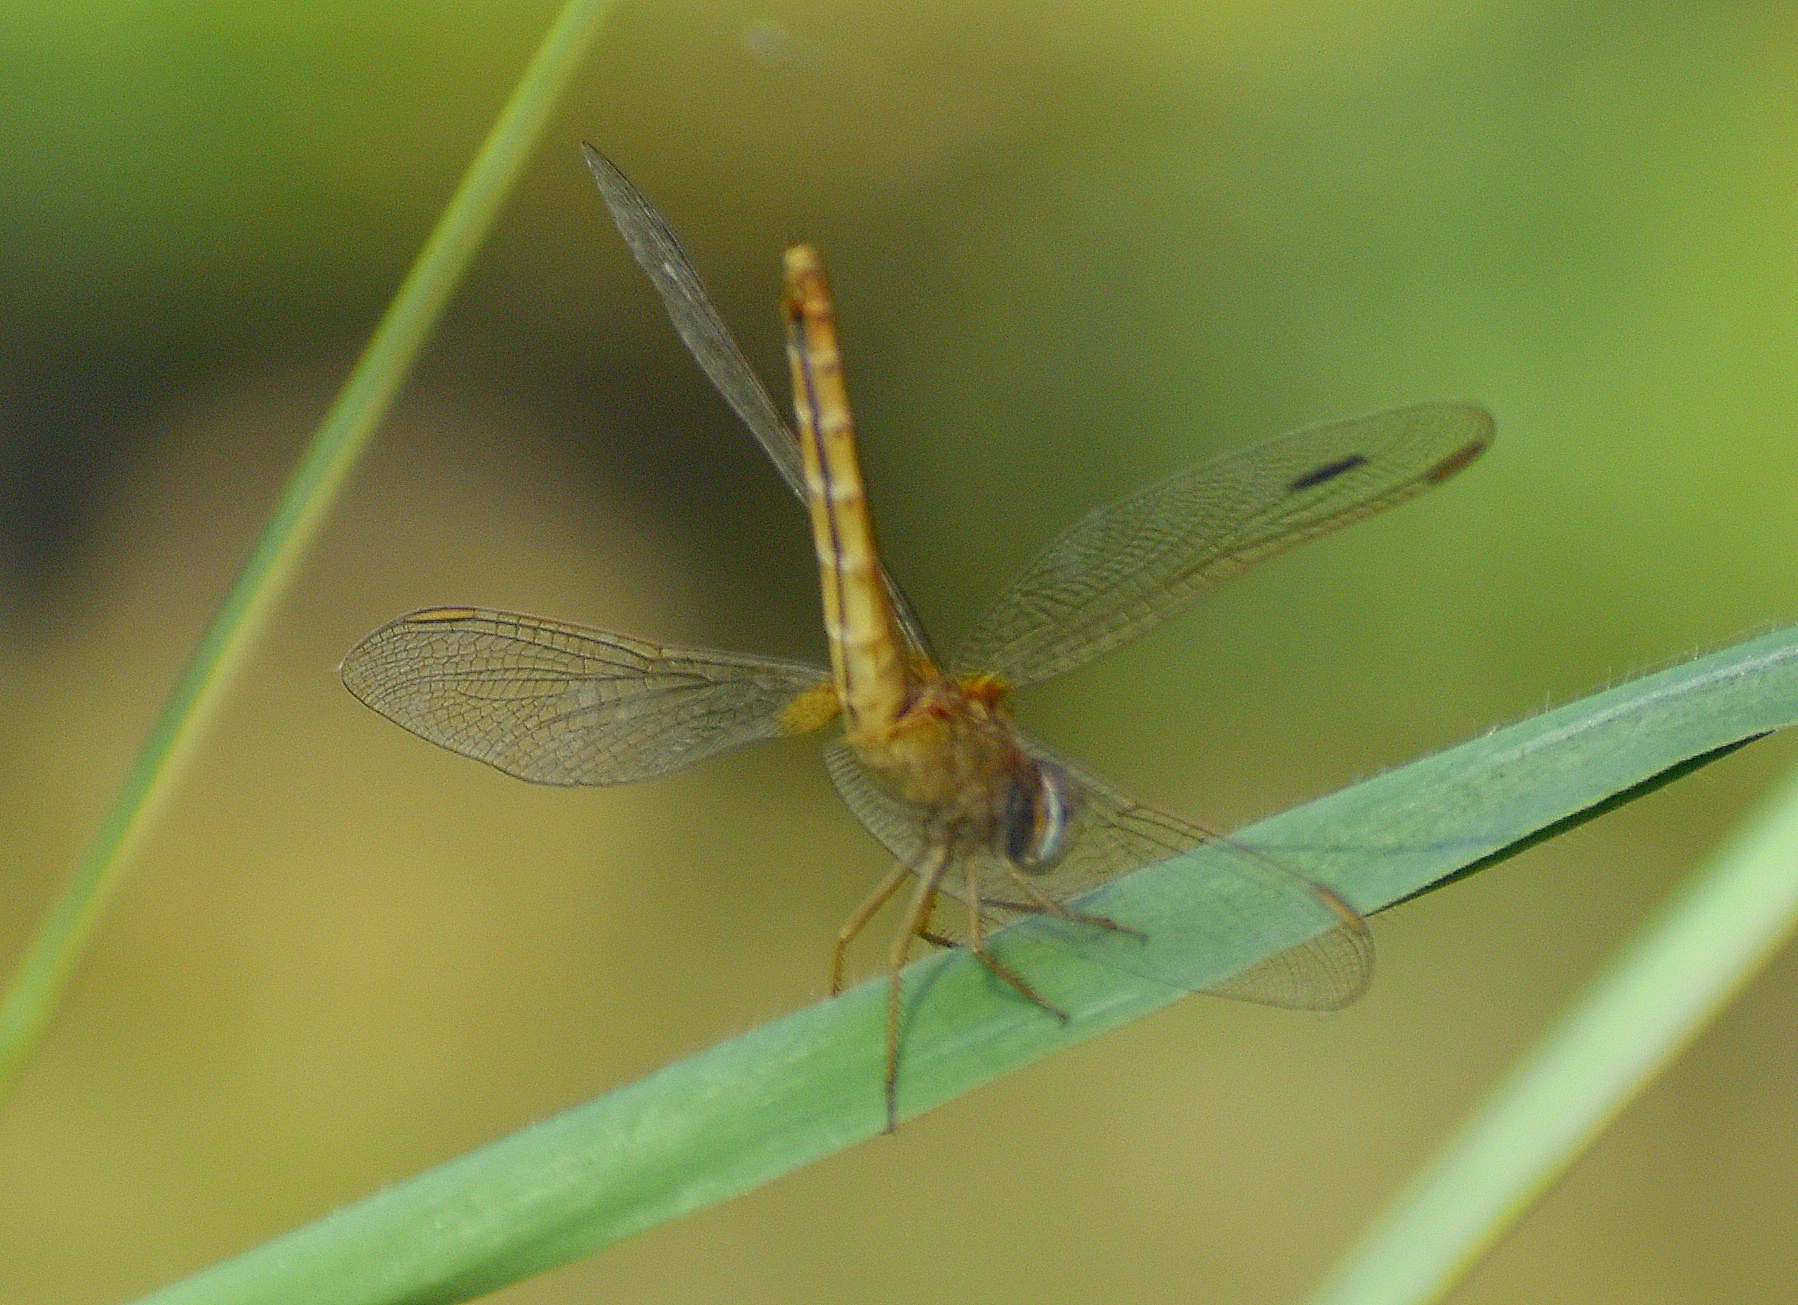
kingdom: Animalia
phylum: Arthropoda
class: Insecta
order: Odonata
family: Libellulidae
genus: Crocothemis
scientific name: Crocothemis servilia
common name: Scarlet skimmer
